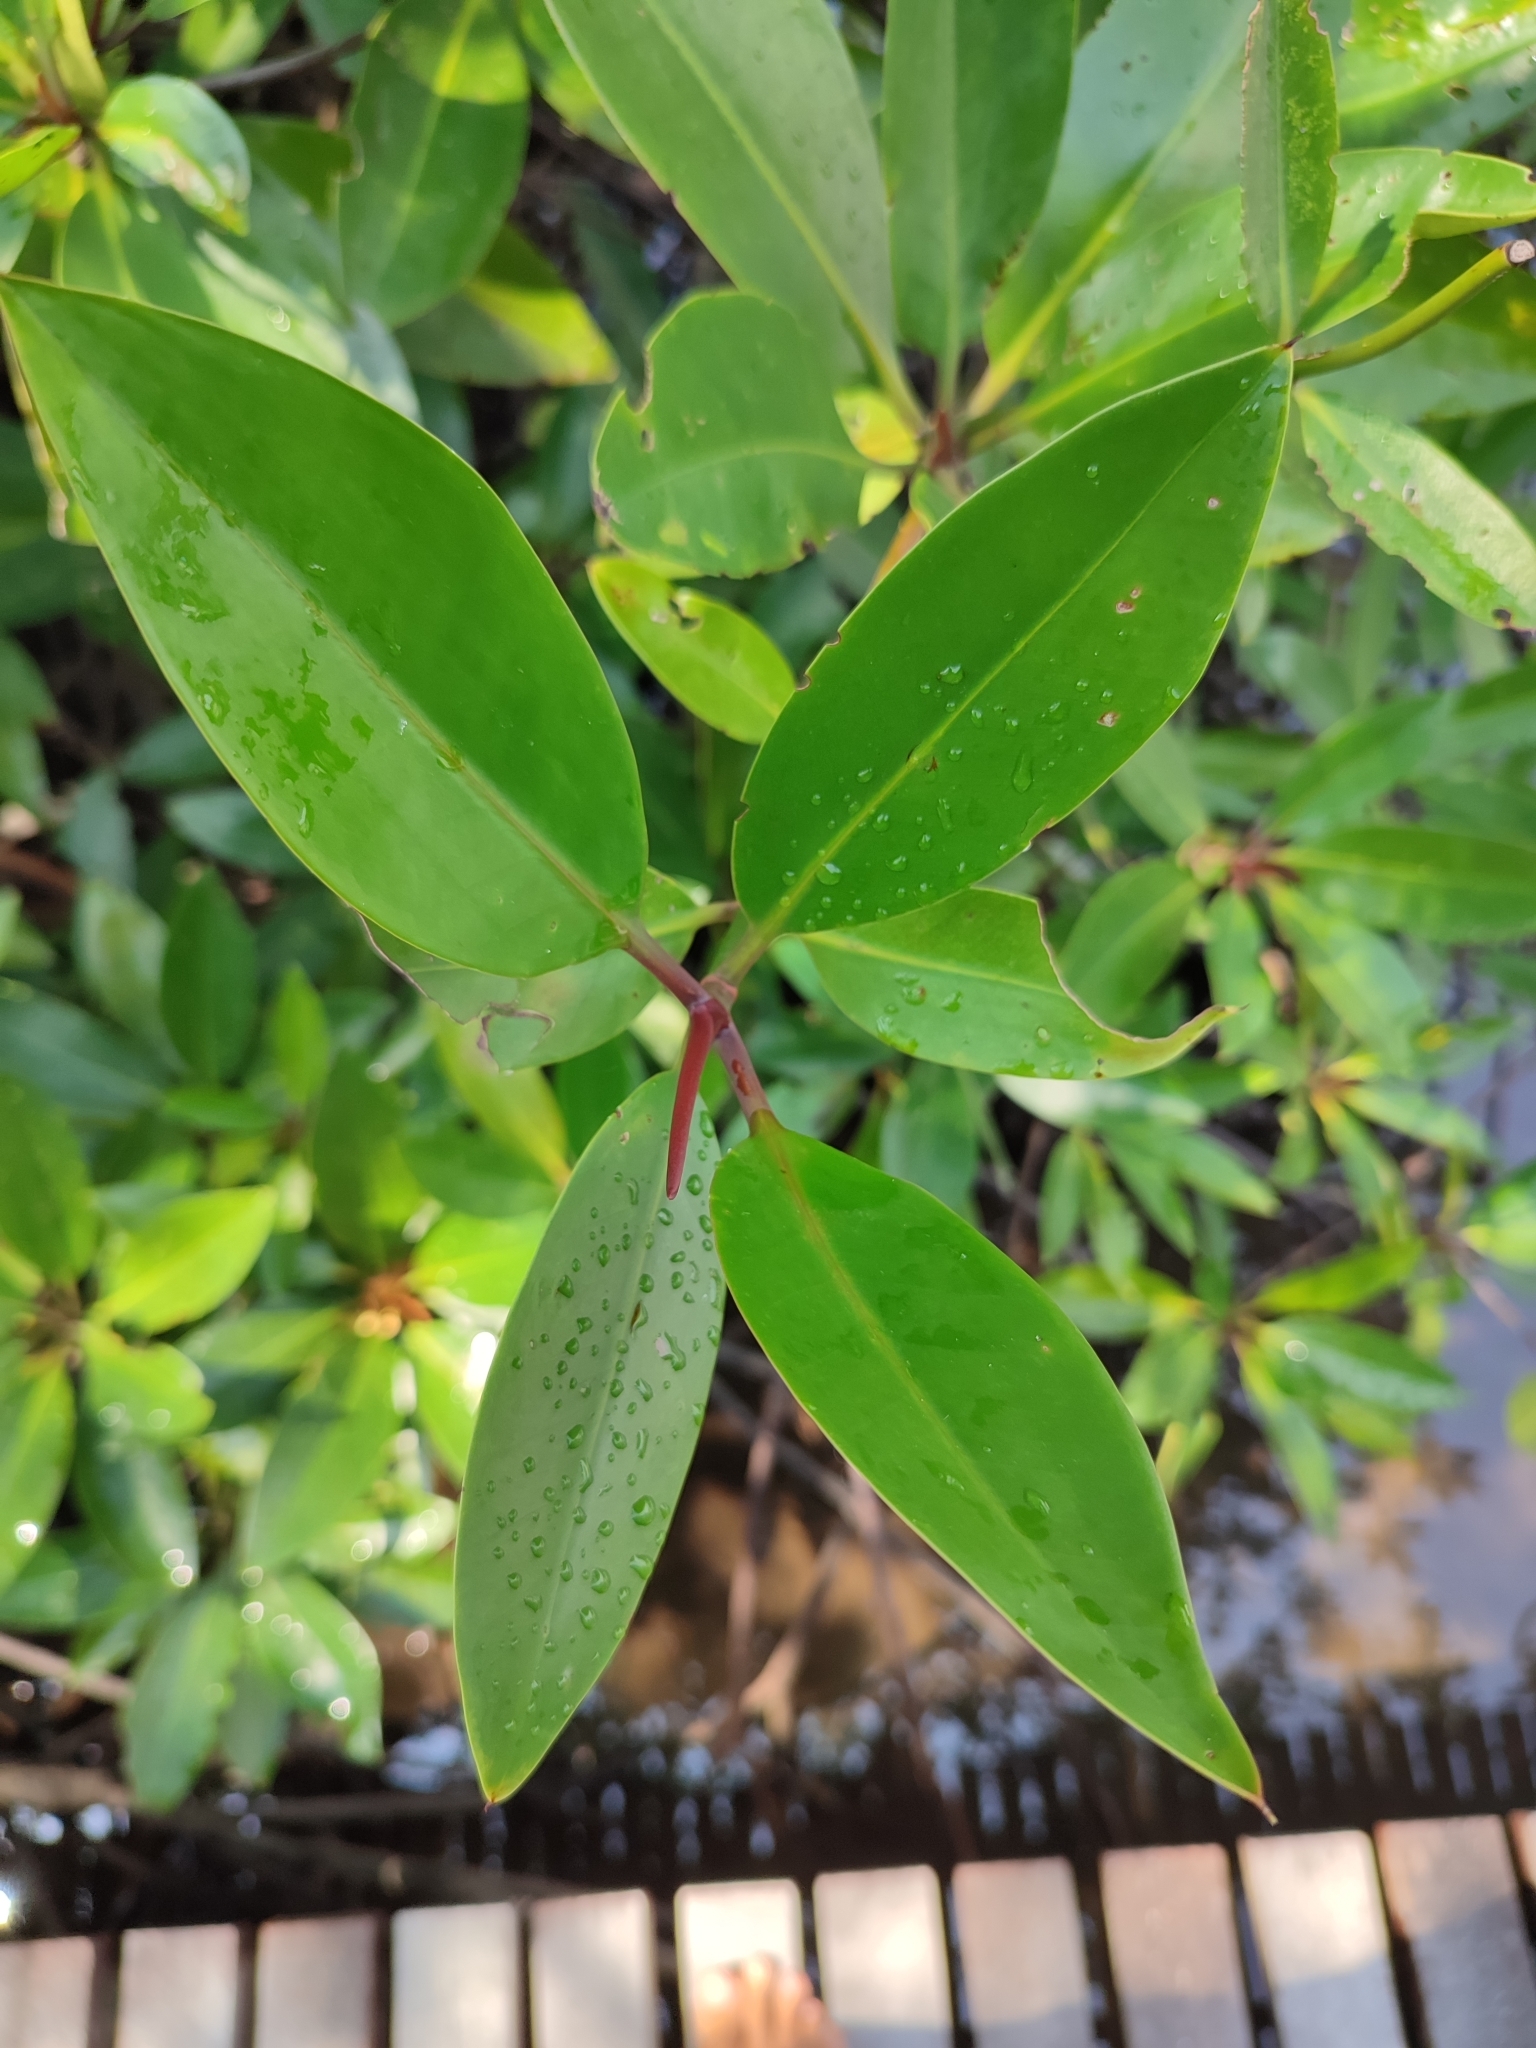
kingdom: Plantae
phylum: Tracheophyta
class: Magnoliopsida
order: Malpighiales
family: Rhizophoraceae
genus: Rhizophora
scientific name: Rhizophora apiculata
